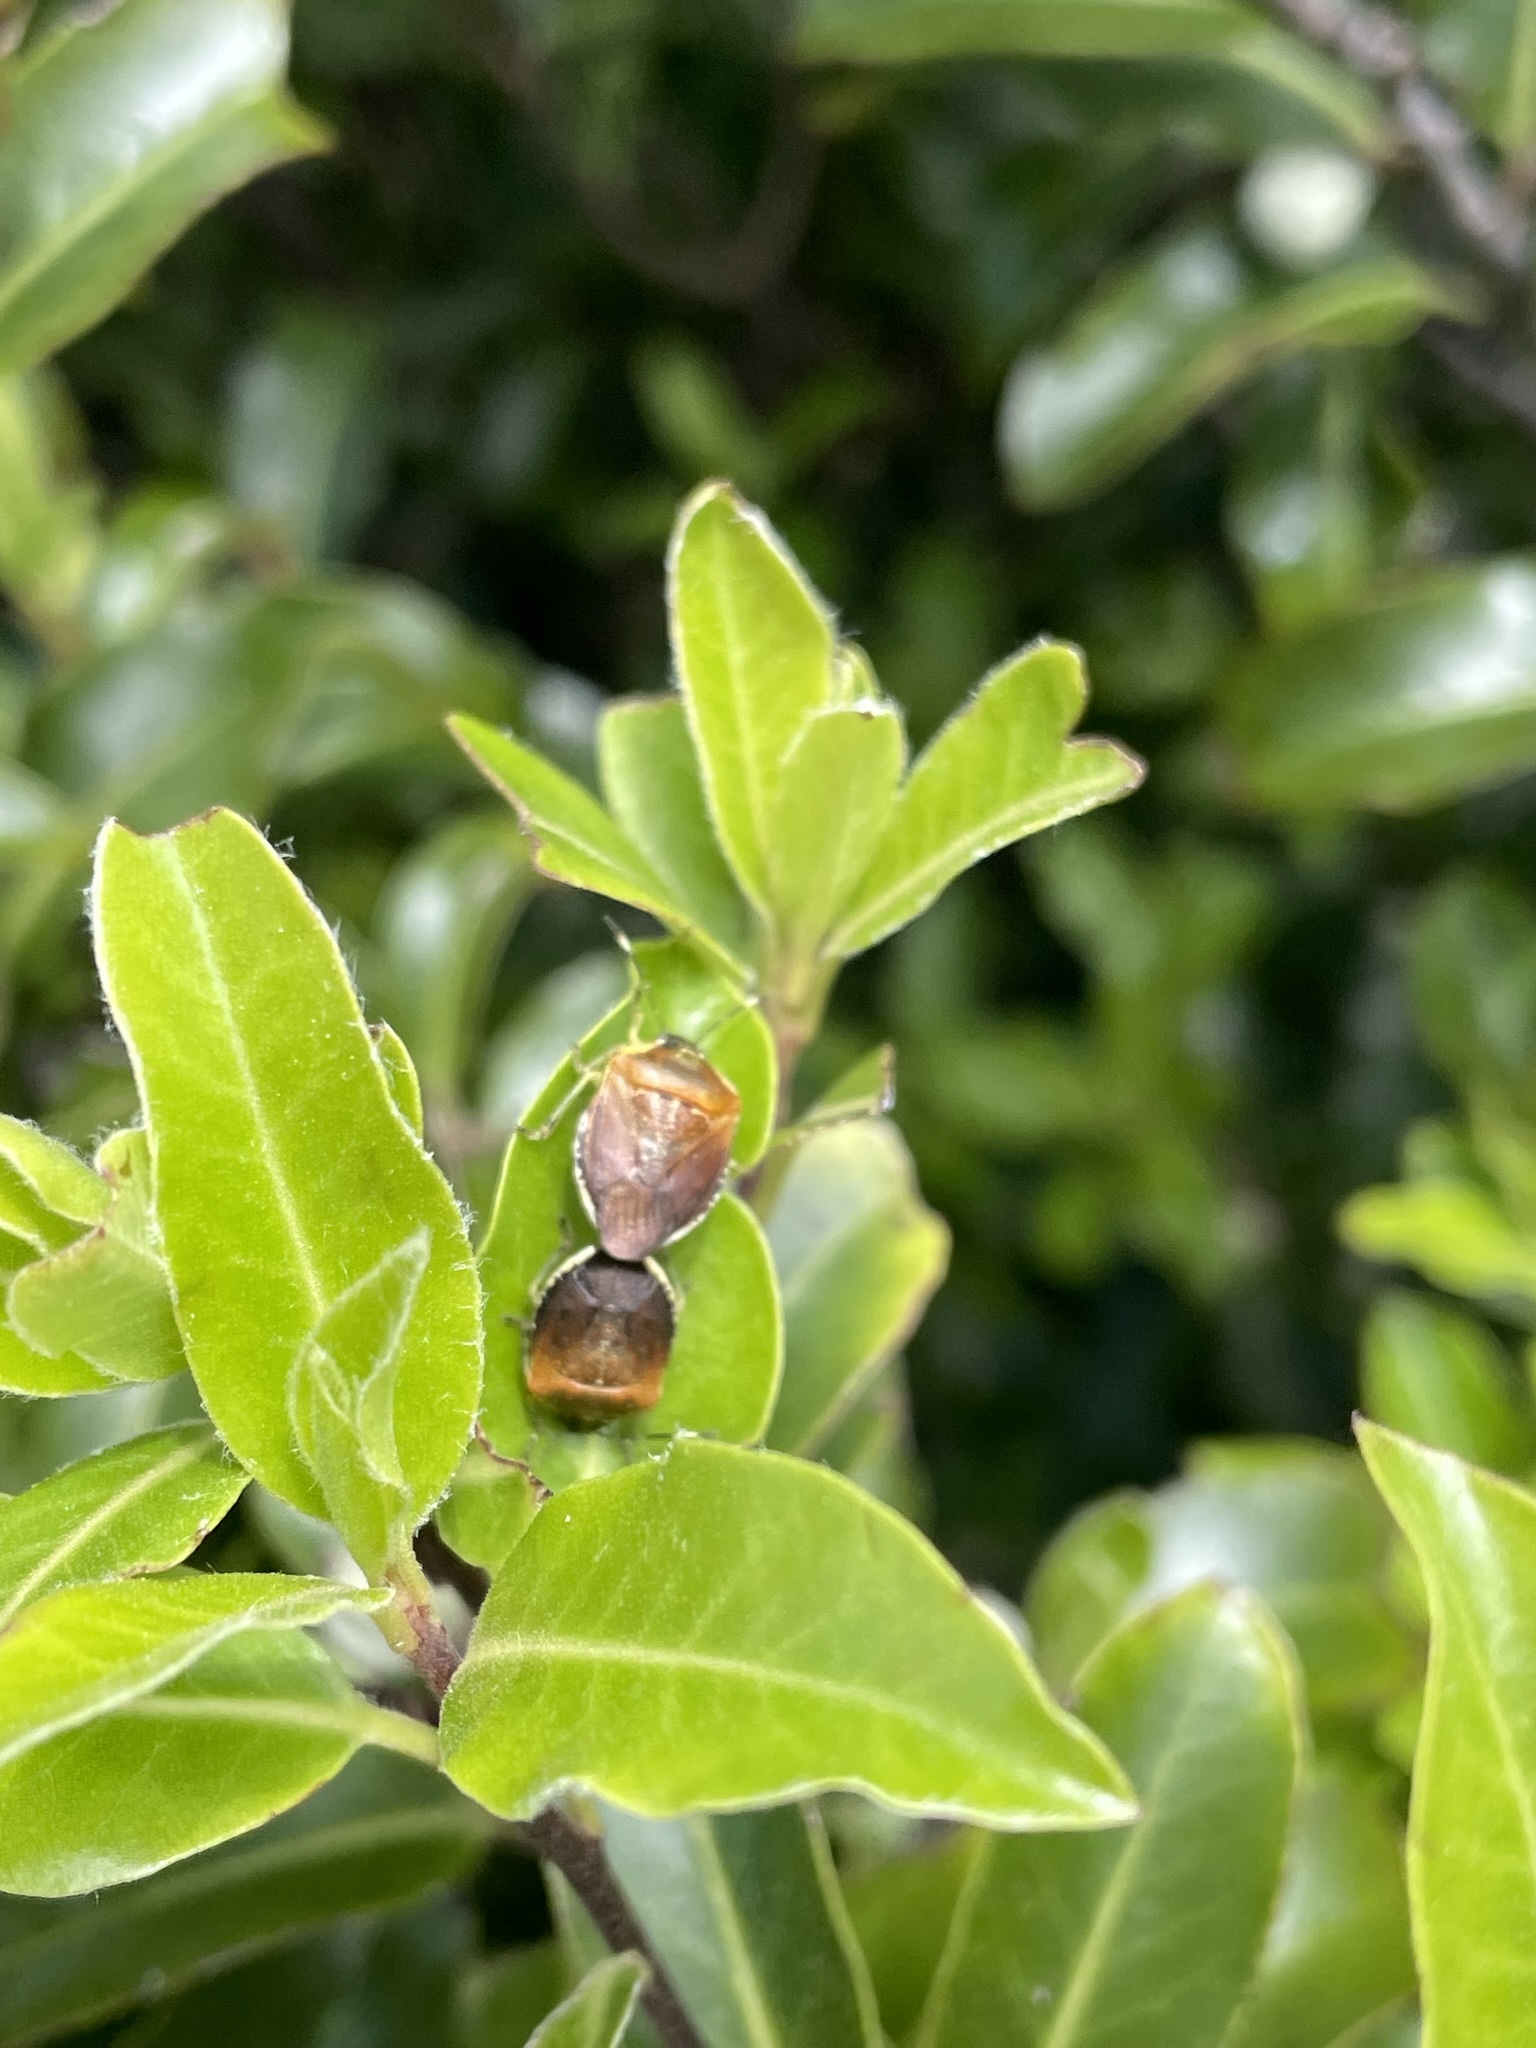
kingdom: Animalia
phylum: Arthropoda
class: Insecta
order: Hemiptera
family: Pentatomidae
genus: Monteithiella
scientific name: Monteithiella
